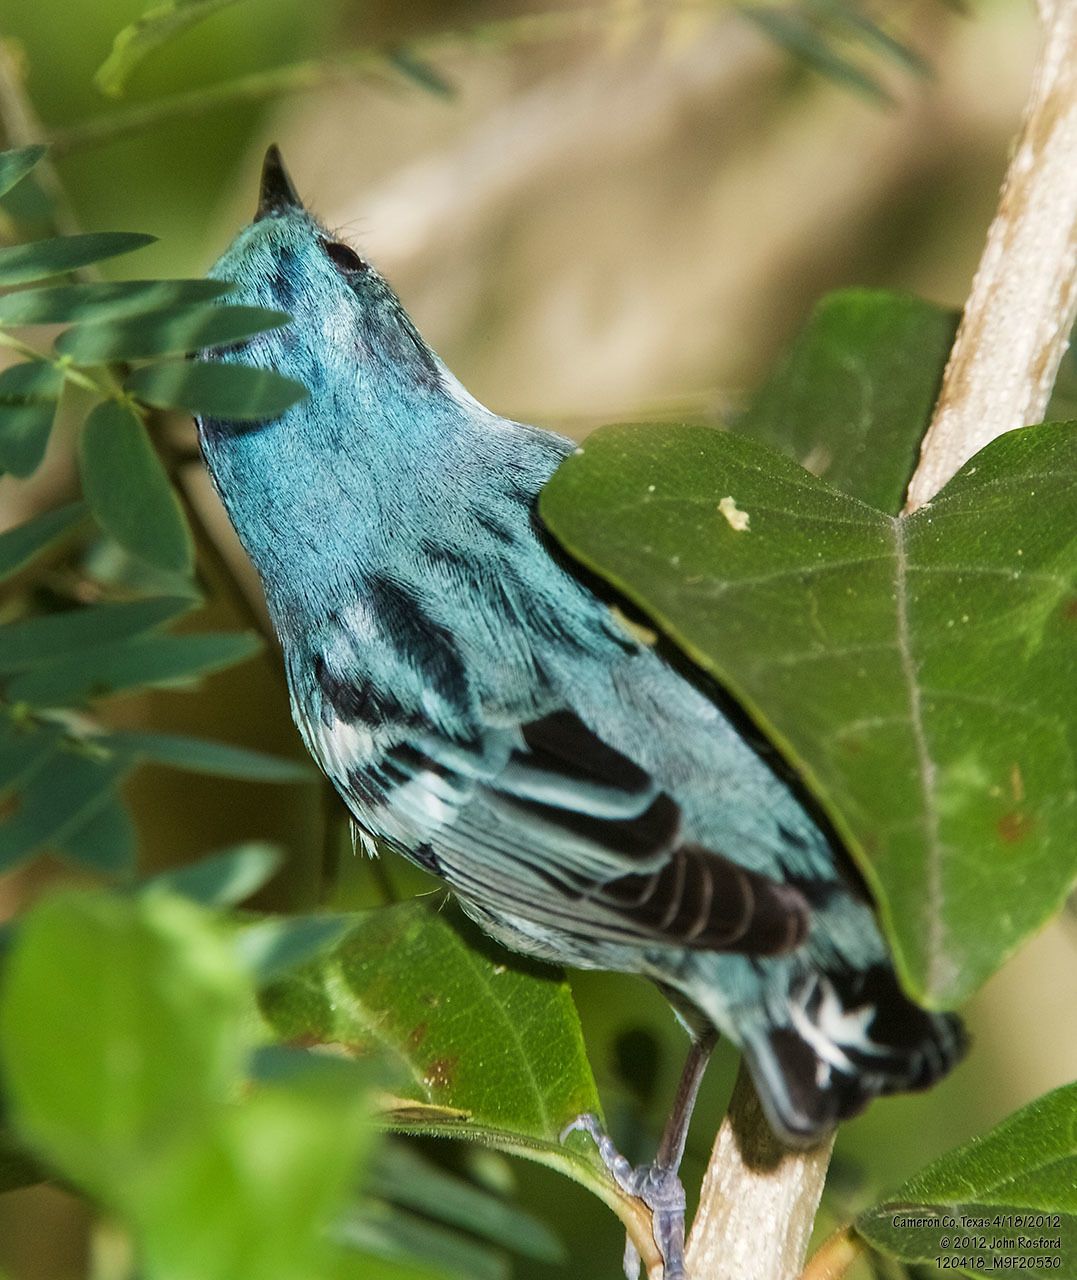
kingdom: Animalia
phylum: Chordata
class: Aves
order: Passeriformes
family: Parulidae
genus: Setophaga
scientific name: Setophaga cerulea
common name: Cerulean warbler
